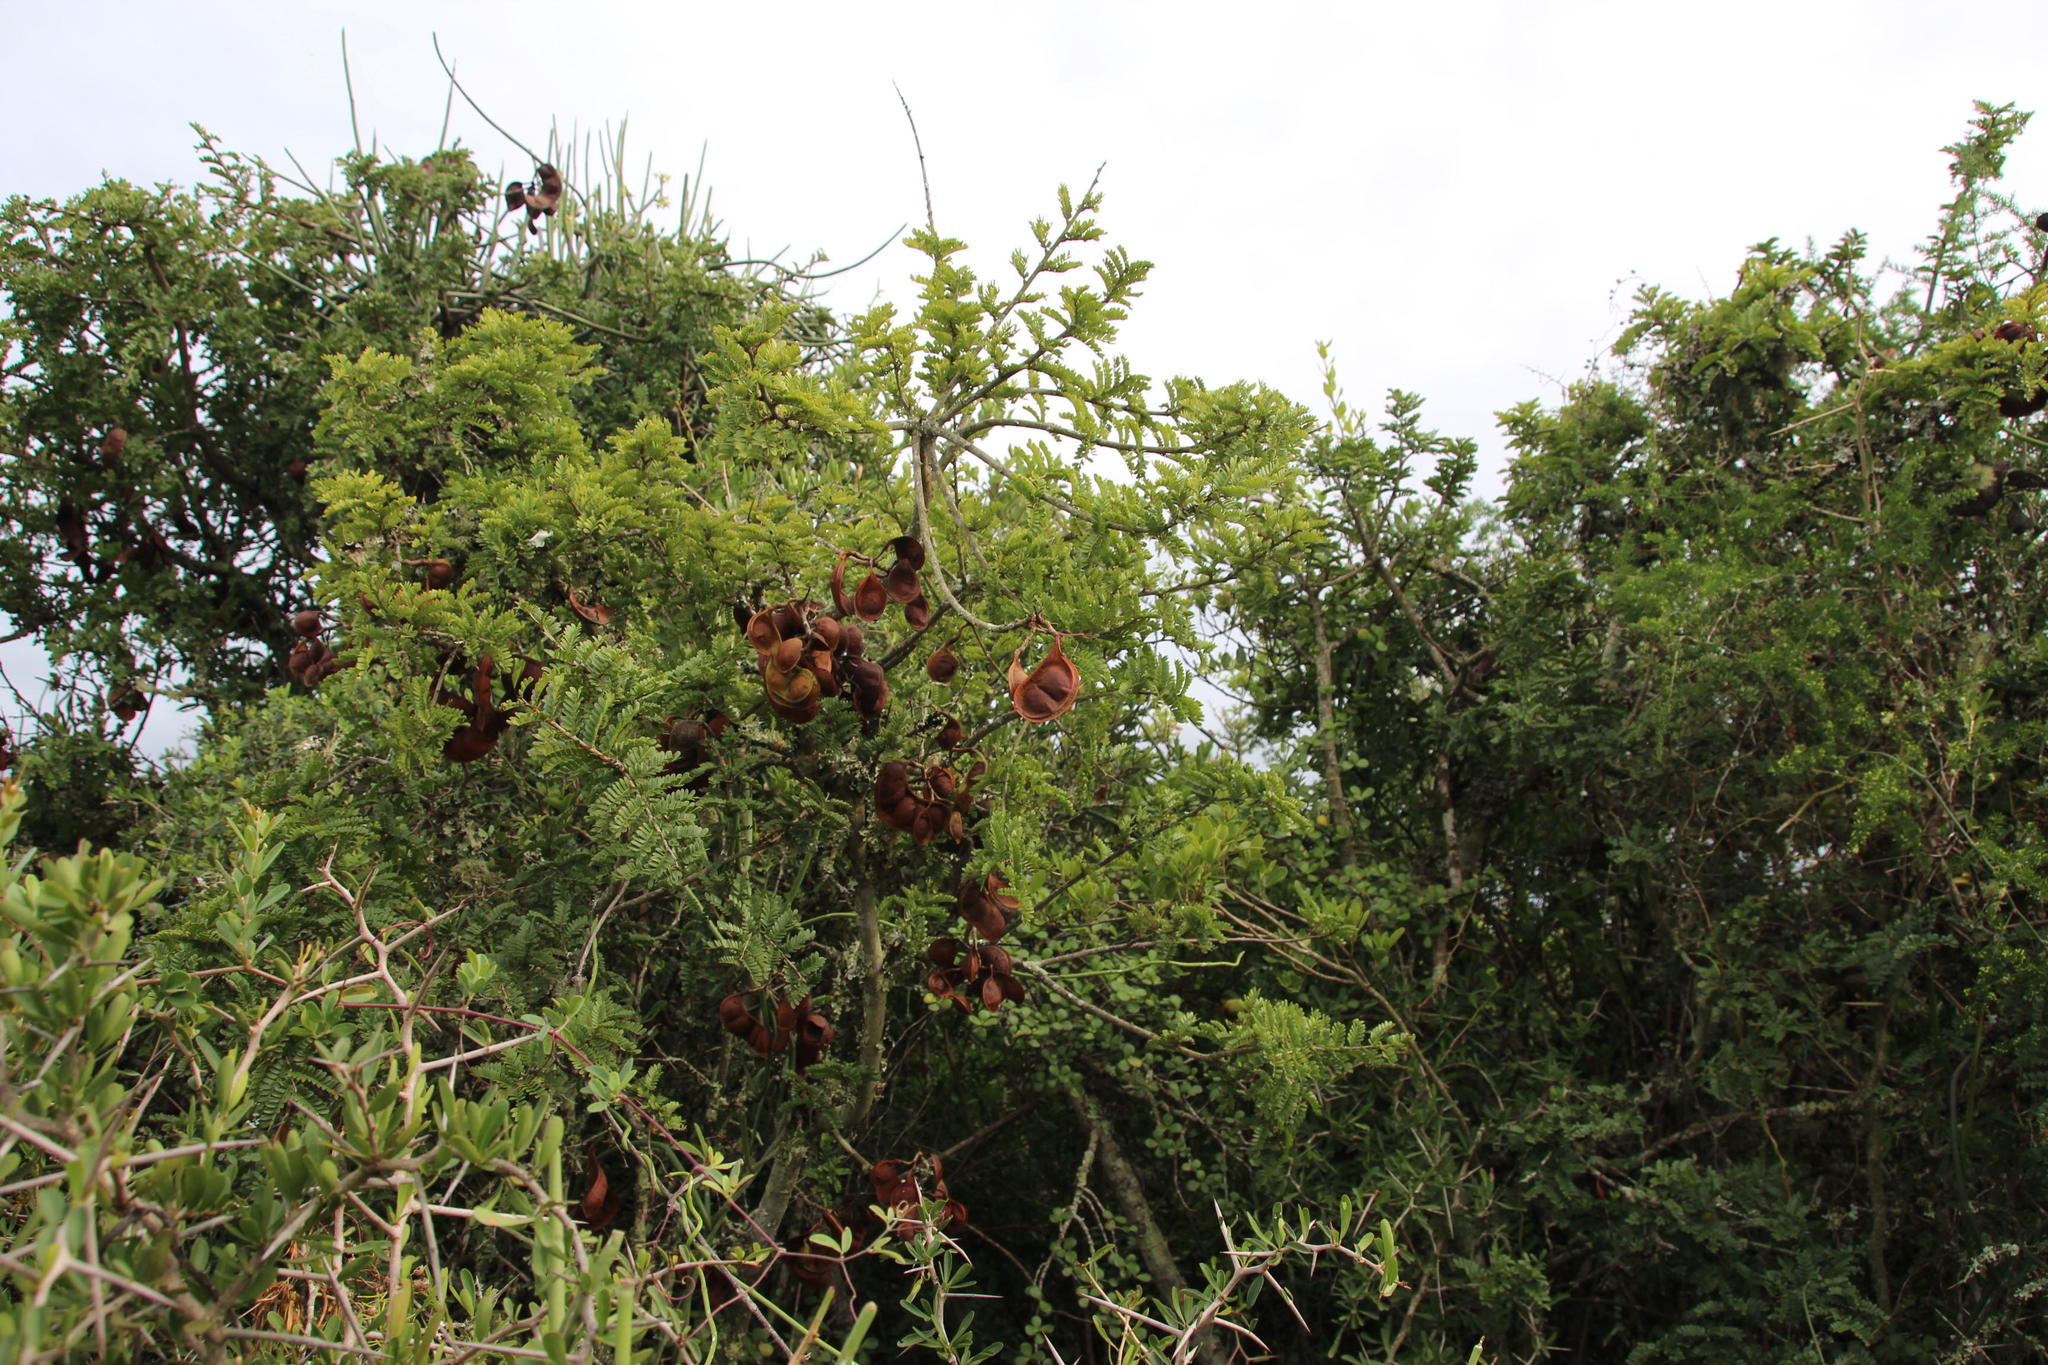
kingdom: Plantae
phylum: Tracheophyta
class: Magnoliopsida
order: Fabales
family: Fabaceae
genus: Schotia
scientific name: Schotia afra
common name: Hottentot's bean
